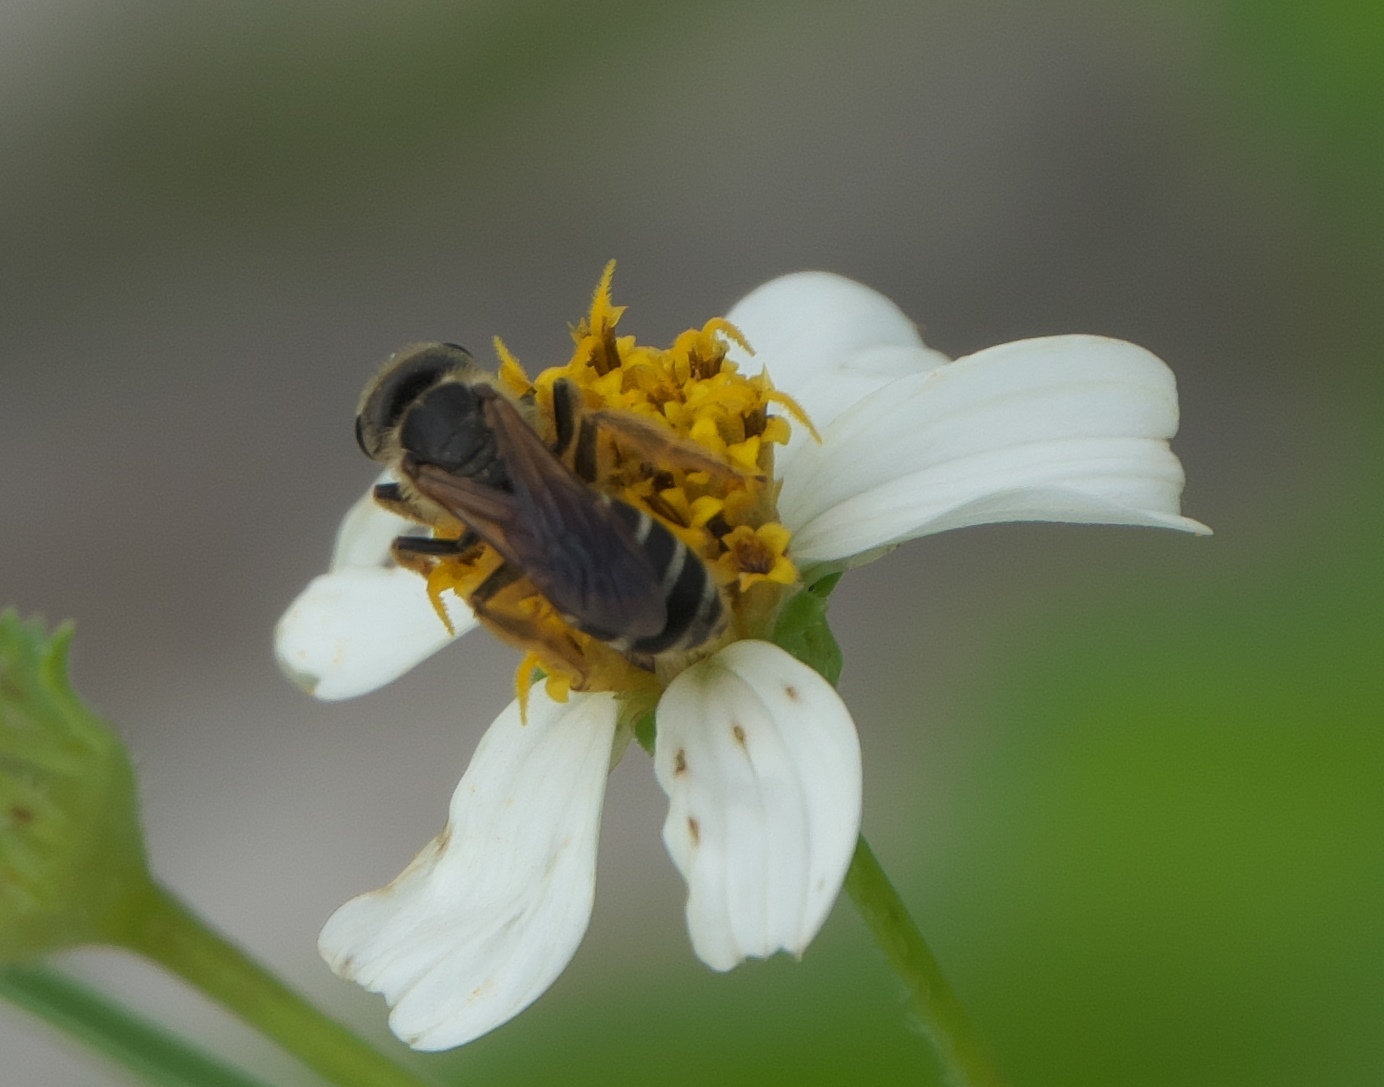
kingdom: Animalia
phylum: Arthropoda
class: Insecta
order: Hymenoptera
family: Halictidae
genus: Halictus
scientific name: Halictus poeyi
